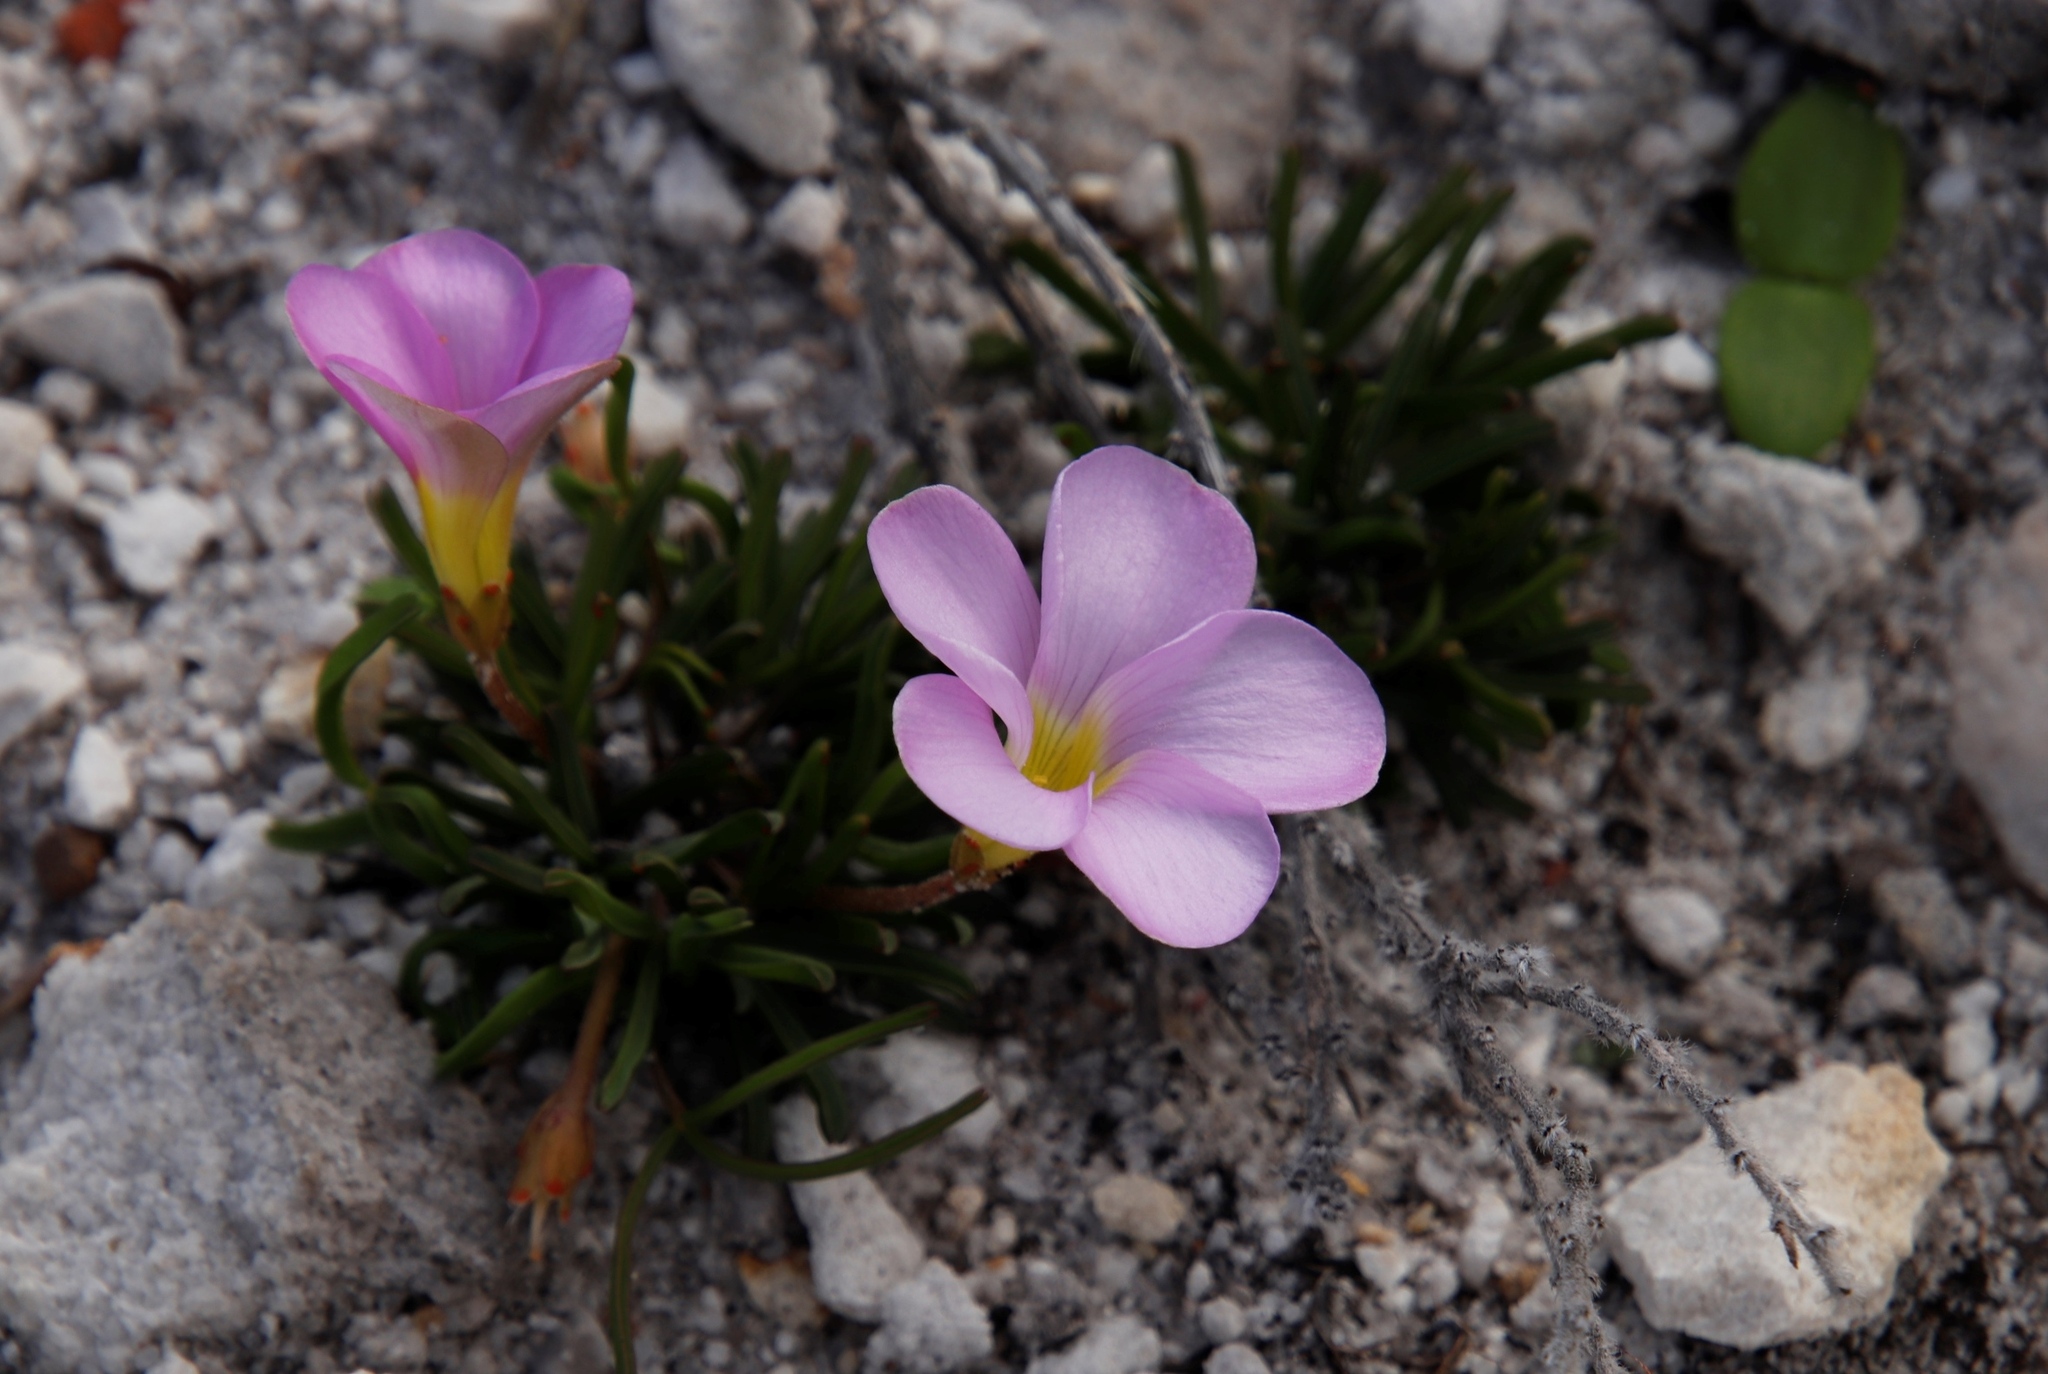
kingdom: Plantae
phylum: Tracheophyta
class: Magnoliopsida
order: Oxalidales
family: Oxalidaceae
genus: Oxalis
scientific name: Oxalis polyphylla
